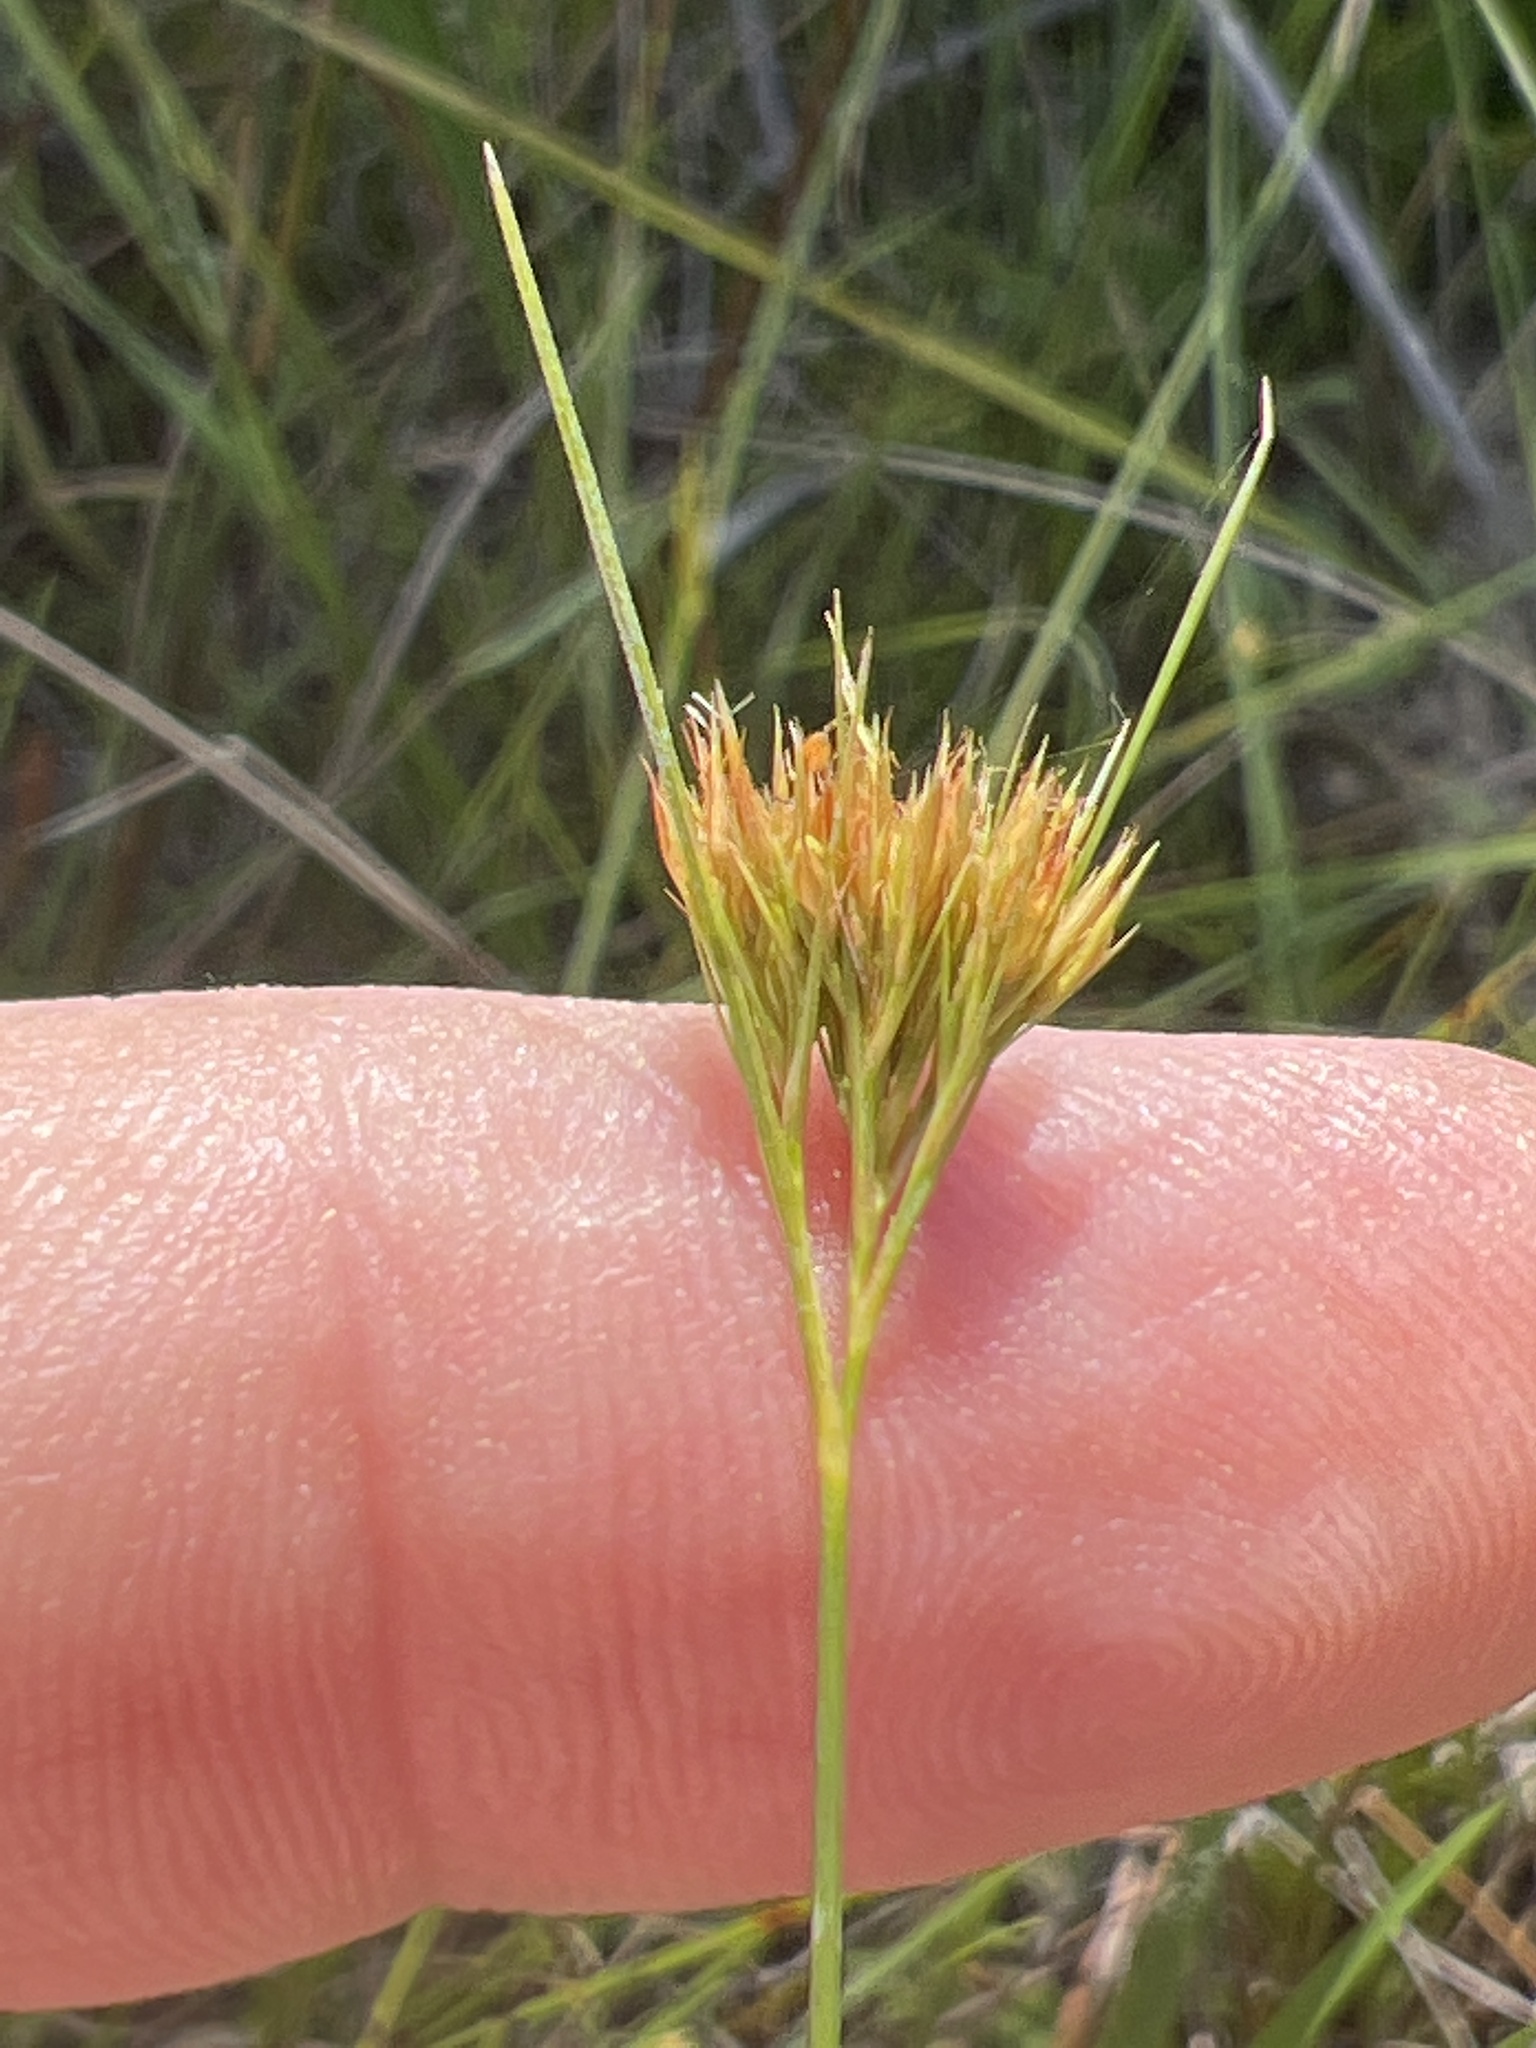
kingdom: Plantae
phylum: Tracheophyta
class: Liliopsida
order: Poales
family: Cyperaceae
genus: Rhynchospora
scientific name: Rhynchospora chapmanii
